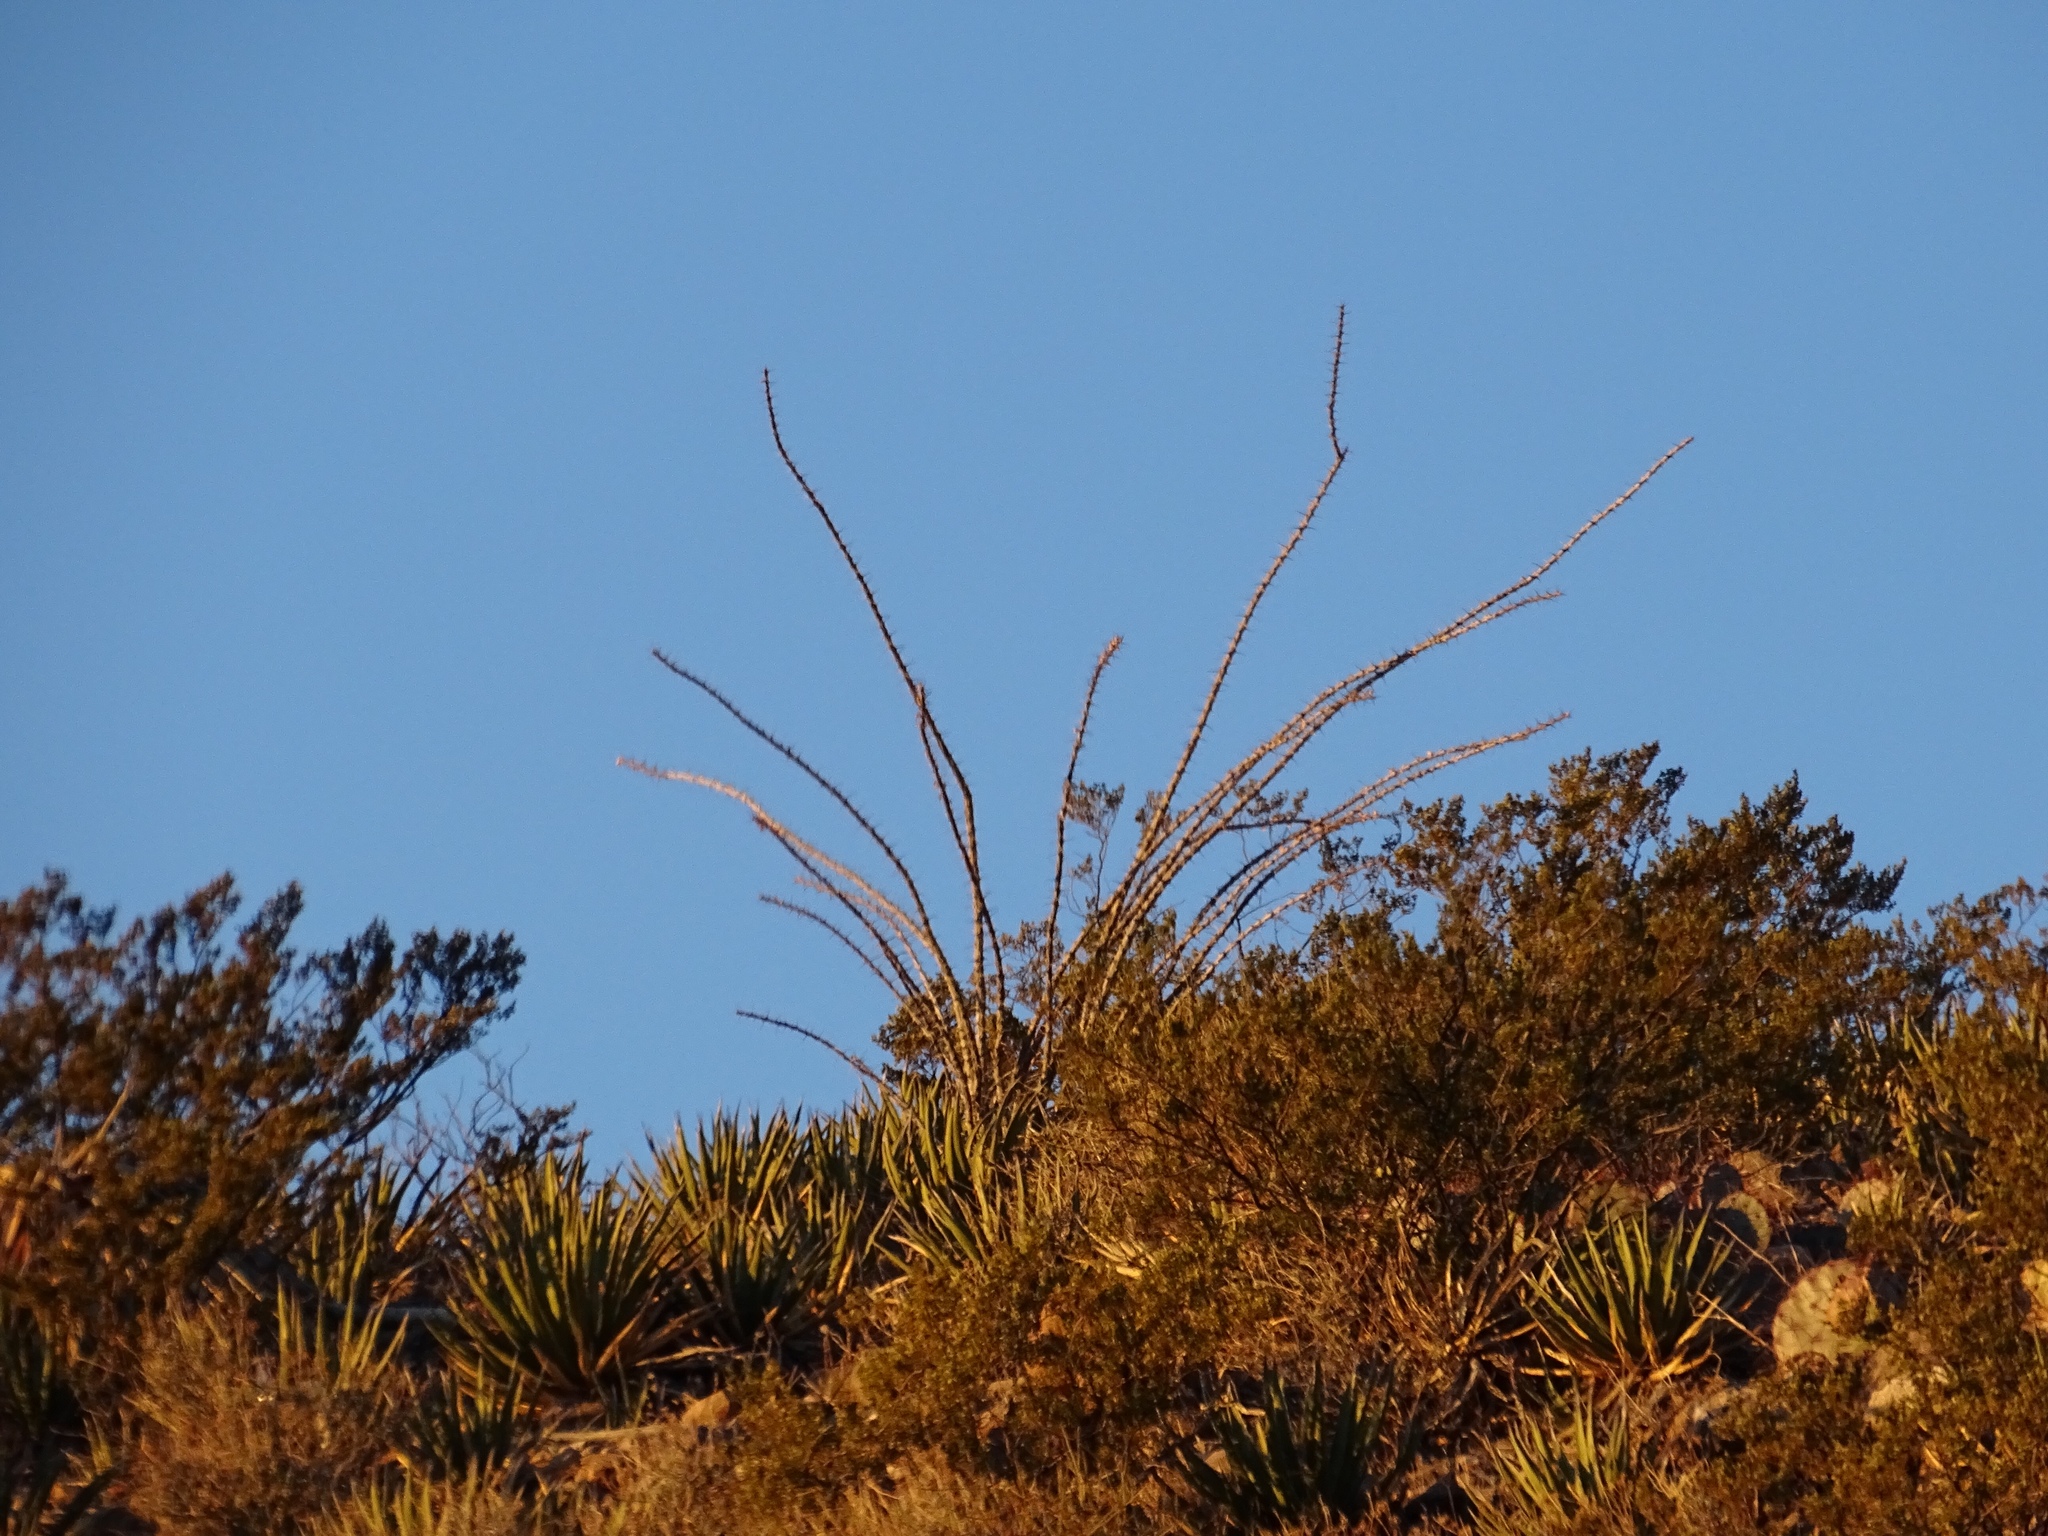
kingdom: Plantae
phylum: Tracheophyta
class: Magnoliopsida
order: Ericales
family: Fouquieriaceae
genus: Fouquieria
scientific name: Fouquieria splendens
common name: Vine-cactus
